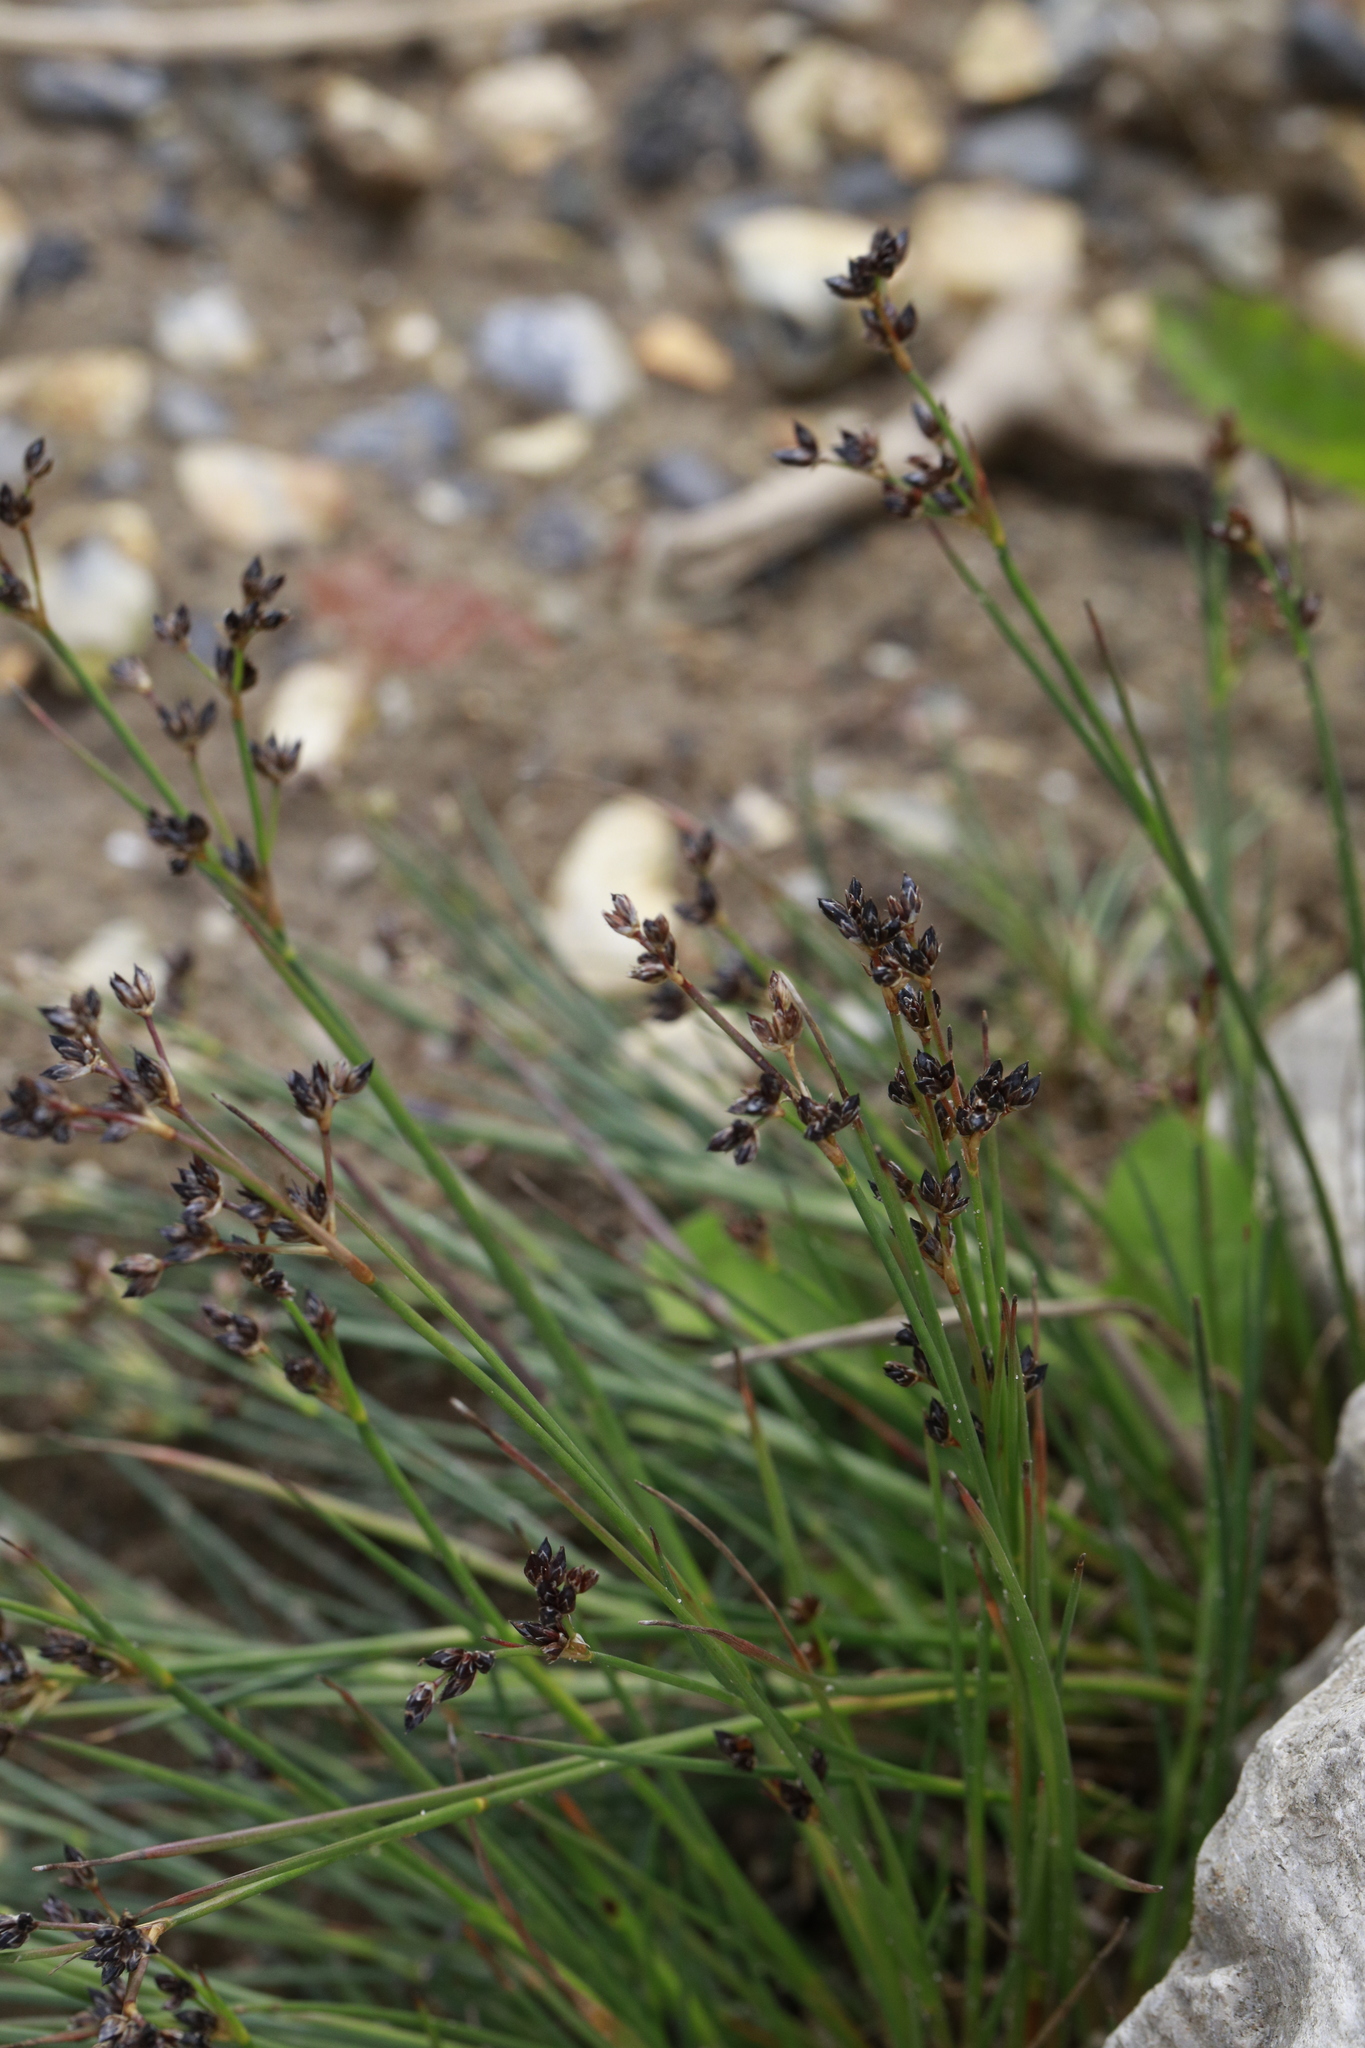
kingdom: Plantae
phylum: Tracheophyta
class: Liliopsida
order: Poales
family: Juncaceae
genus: Juncus
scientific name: Juncus articulatus
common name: Jointed rush
